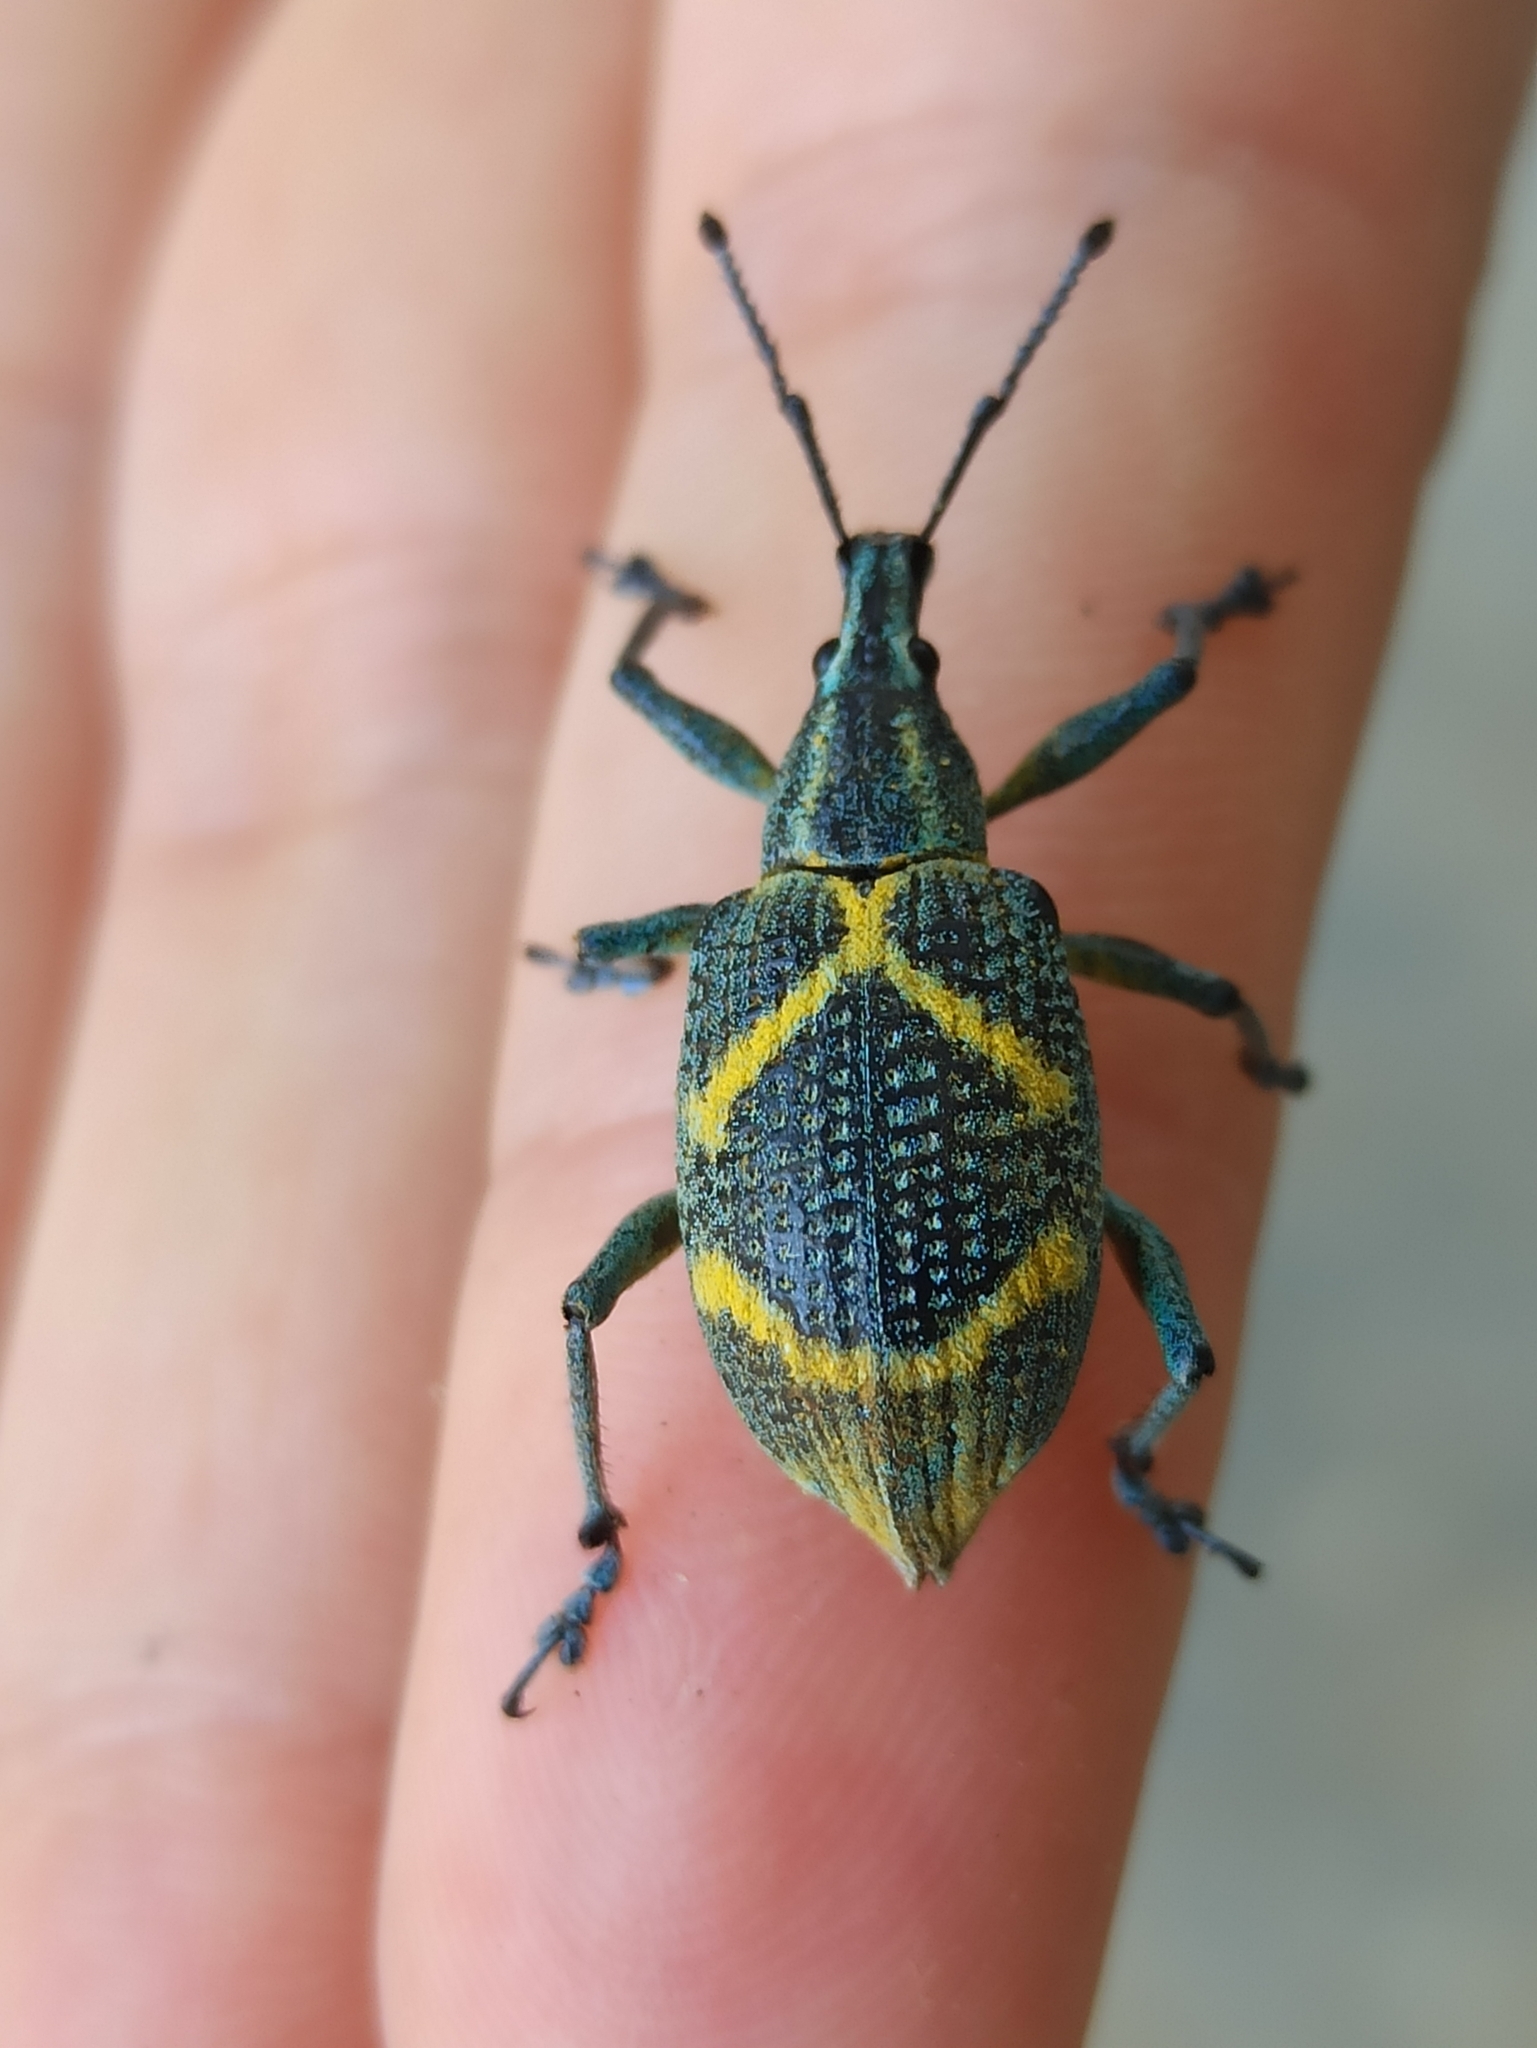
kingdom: Animalia
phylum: Arthropoda
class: Insecta
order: Coleoptera
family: Curculionidae
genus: Exophthalmus
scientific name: Exophthalmus parentheticus
